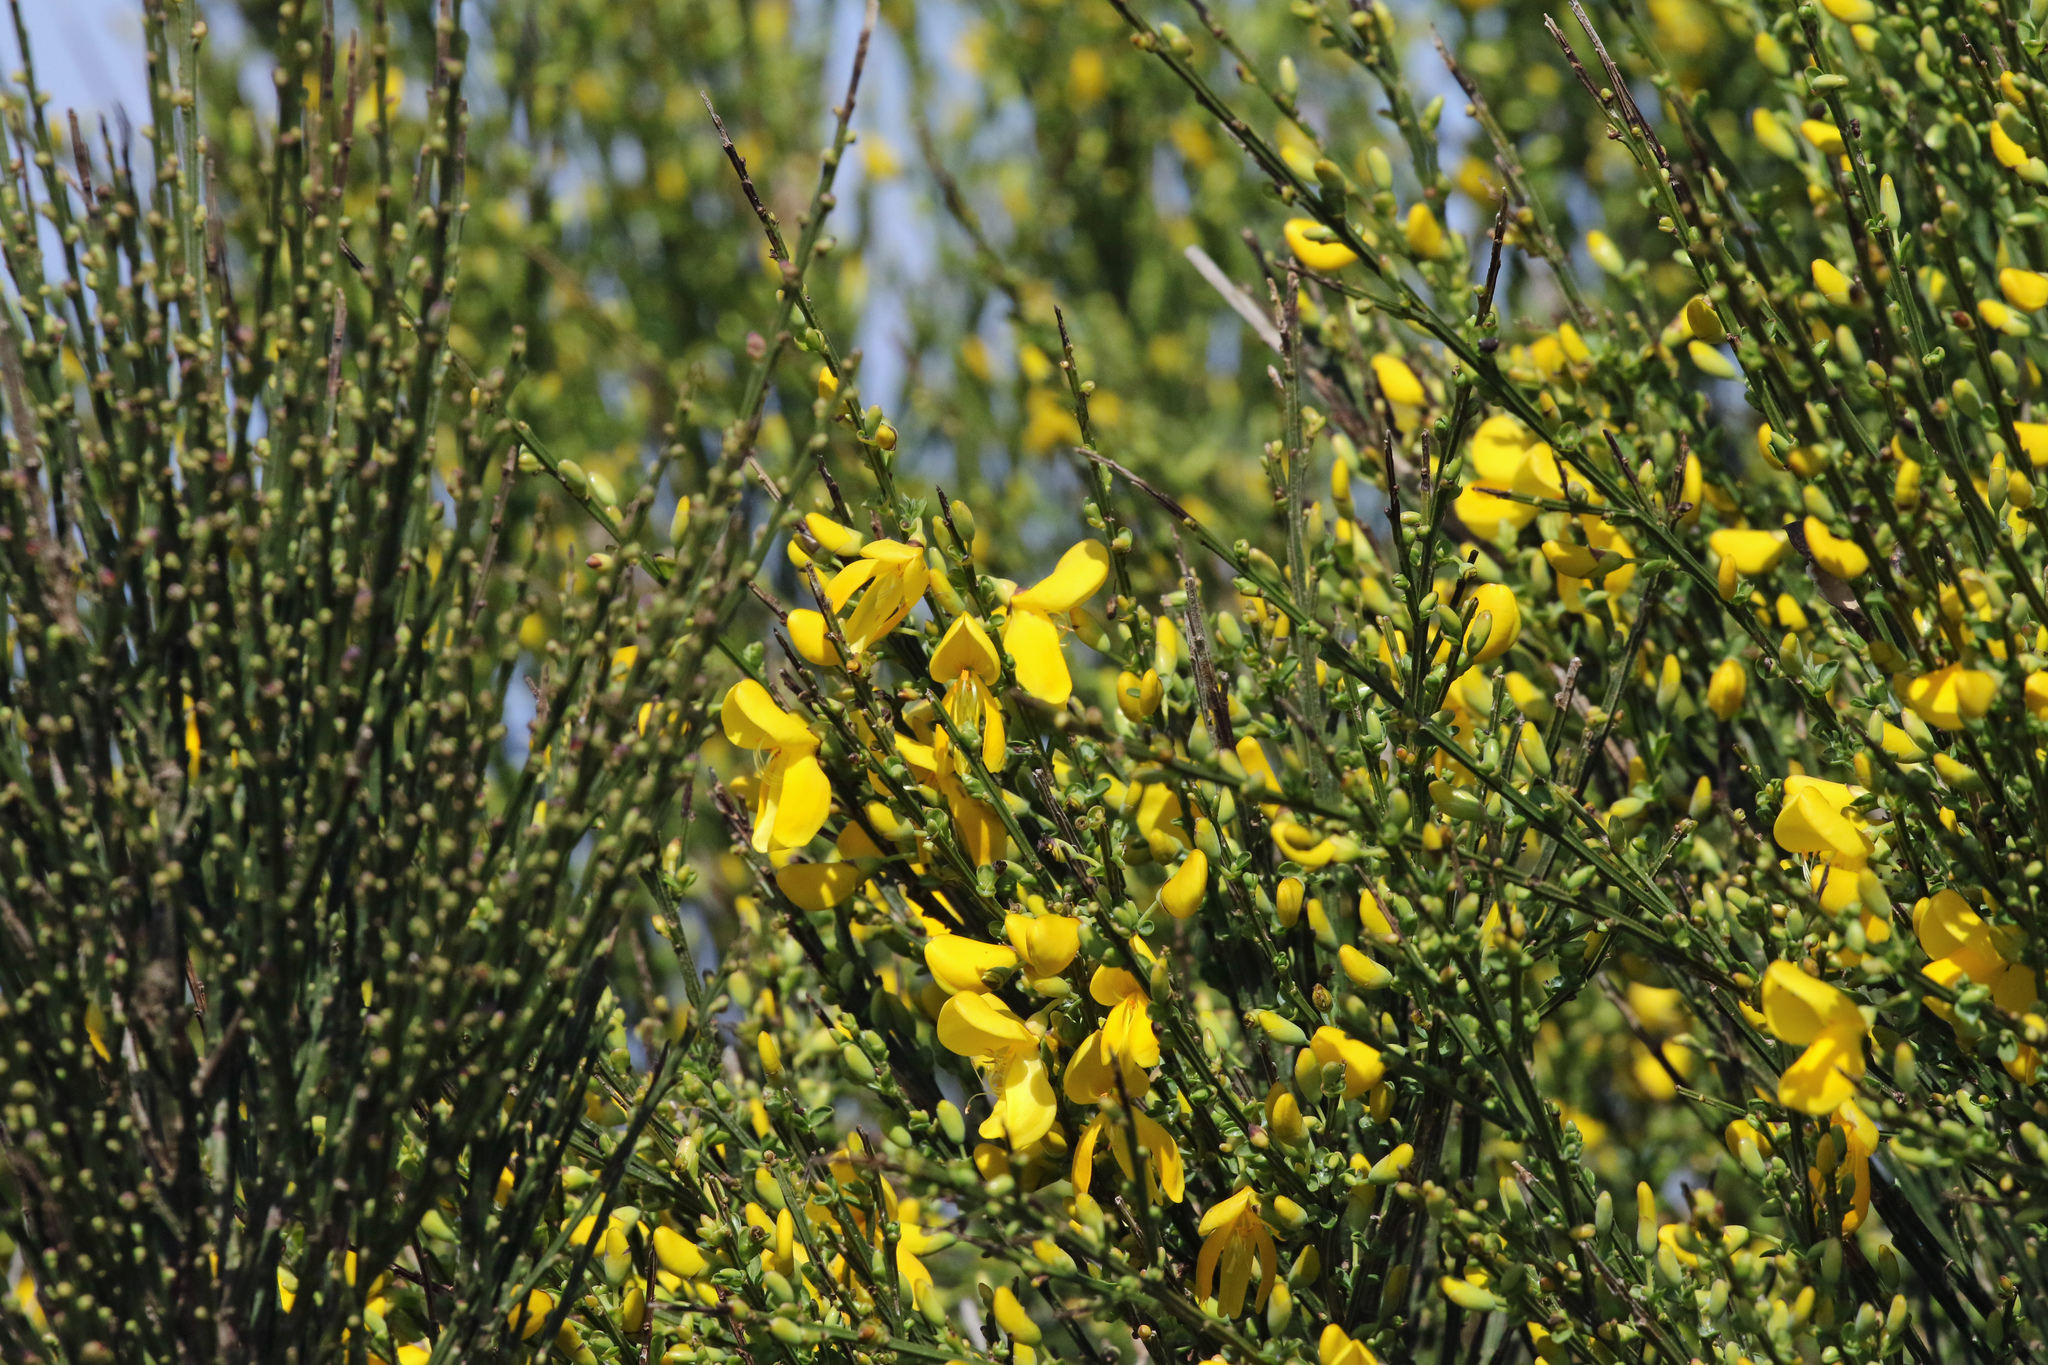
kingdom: Plantae
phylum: Tracheophyta
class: Magnoliopsida
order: Fabales
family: Fabaceae
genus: Cytisus
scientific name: Cytisus scoparius
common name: Scotch broom
